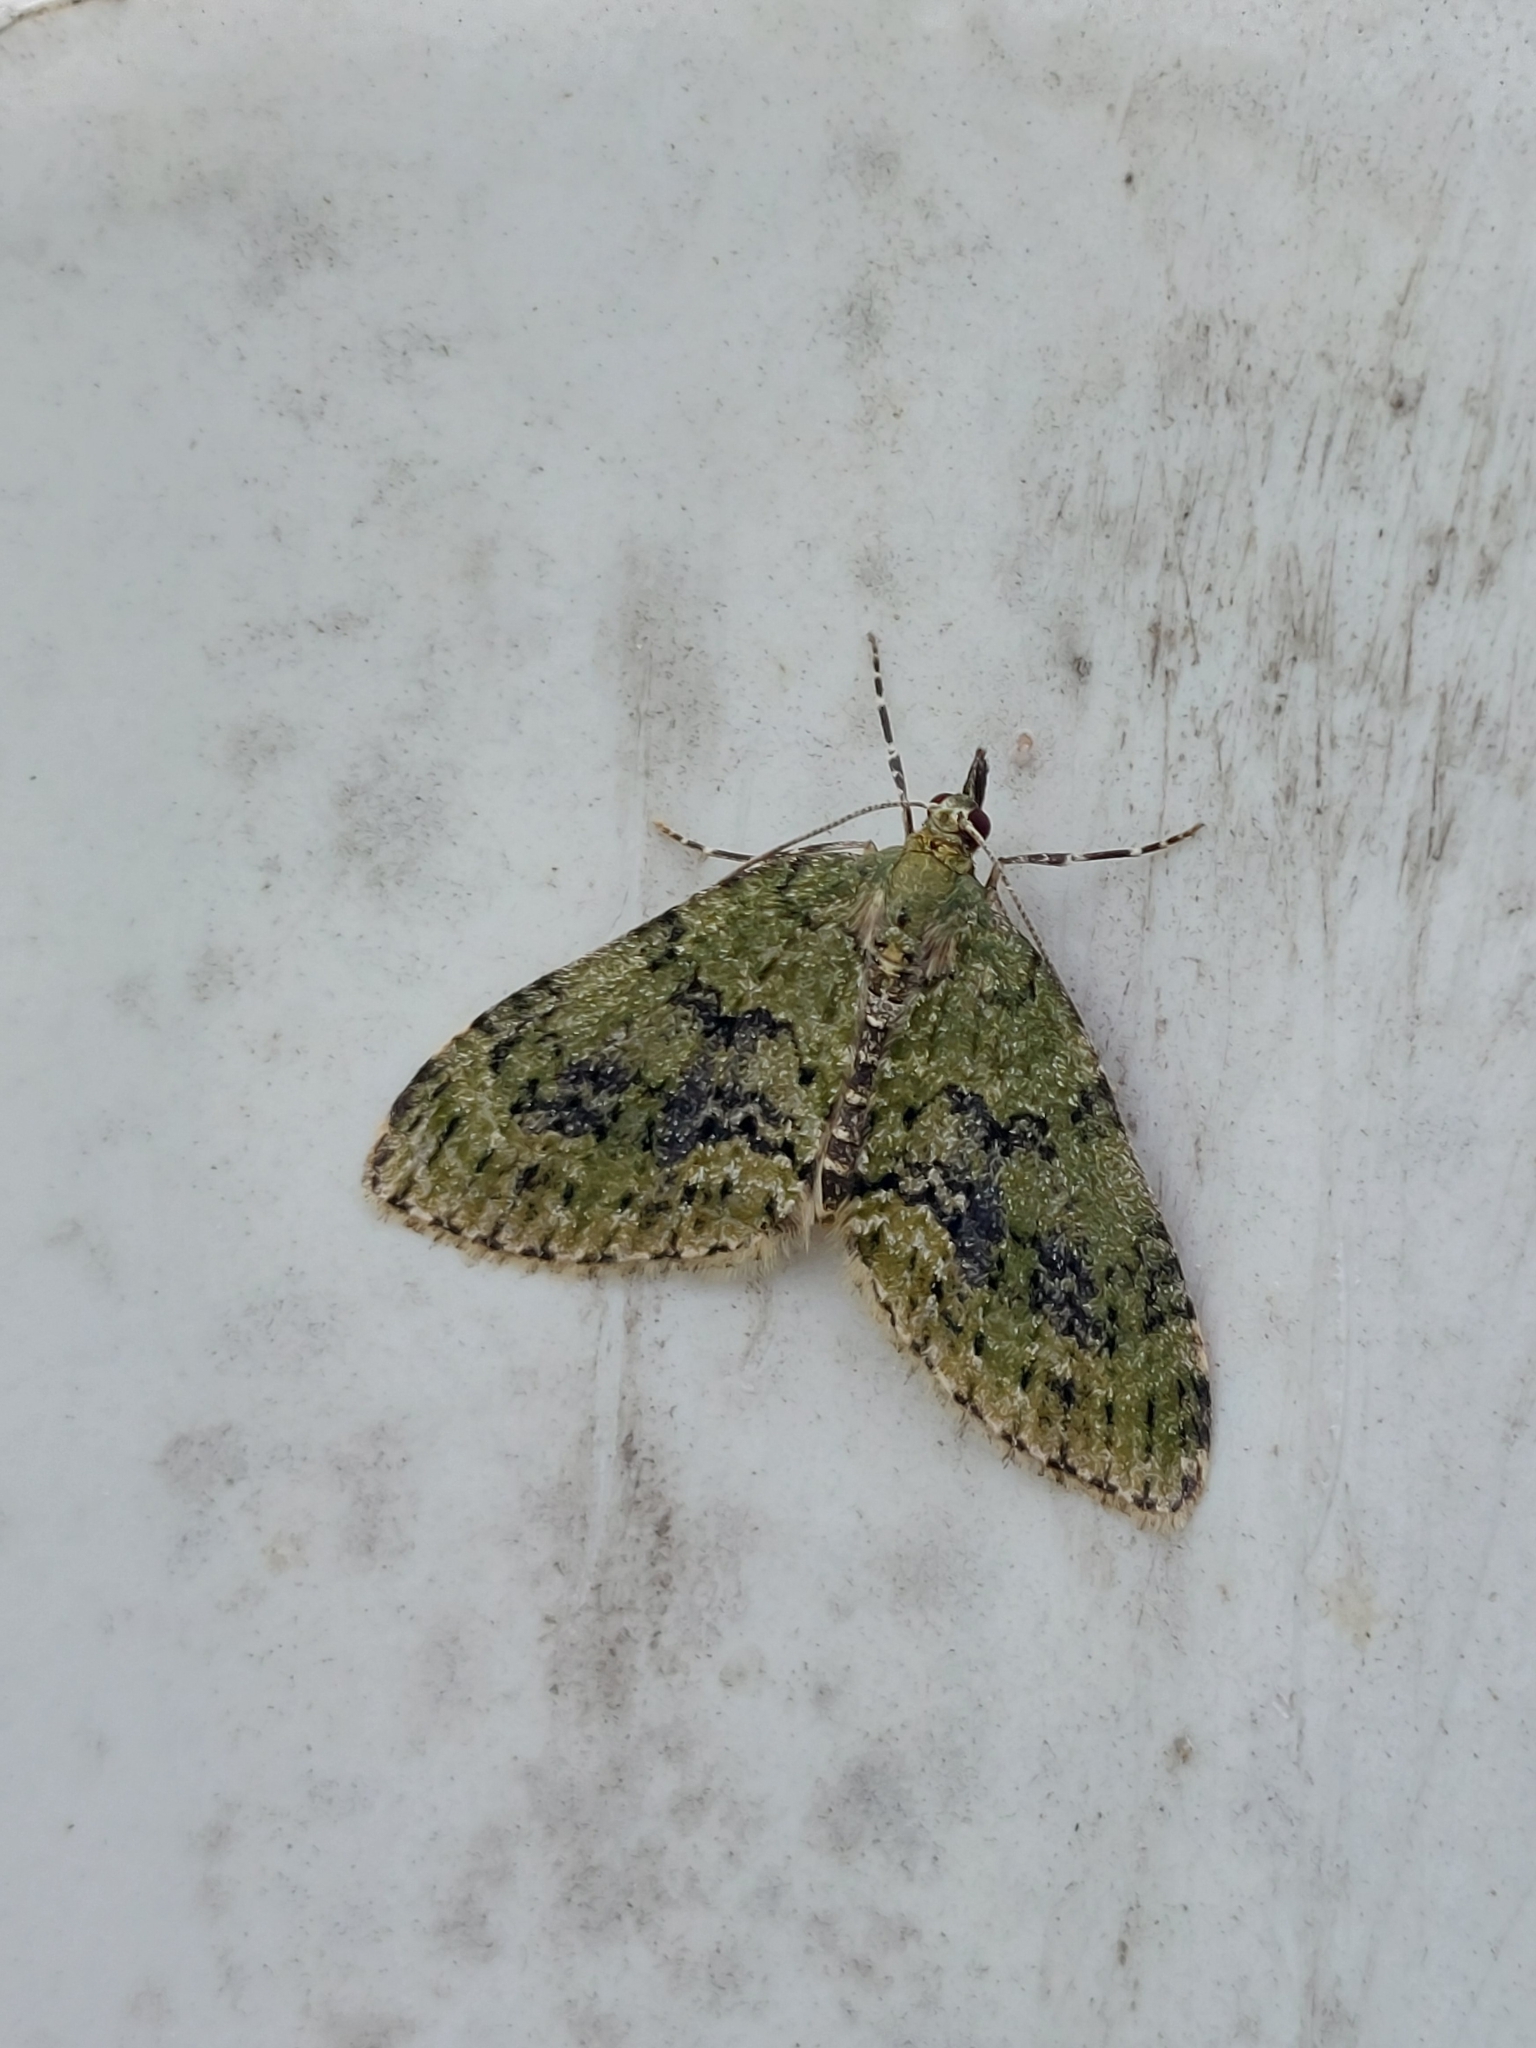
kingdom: Animalia
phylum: Arthropoda
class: Insecta
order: Lepidoptera
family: Geometridae
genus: Acasis
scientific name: Acasis viretata
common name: Yellow-barred brindle
